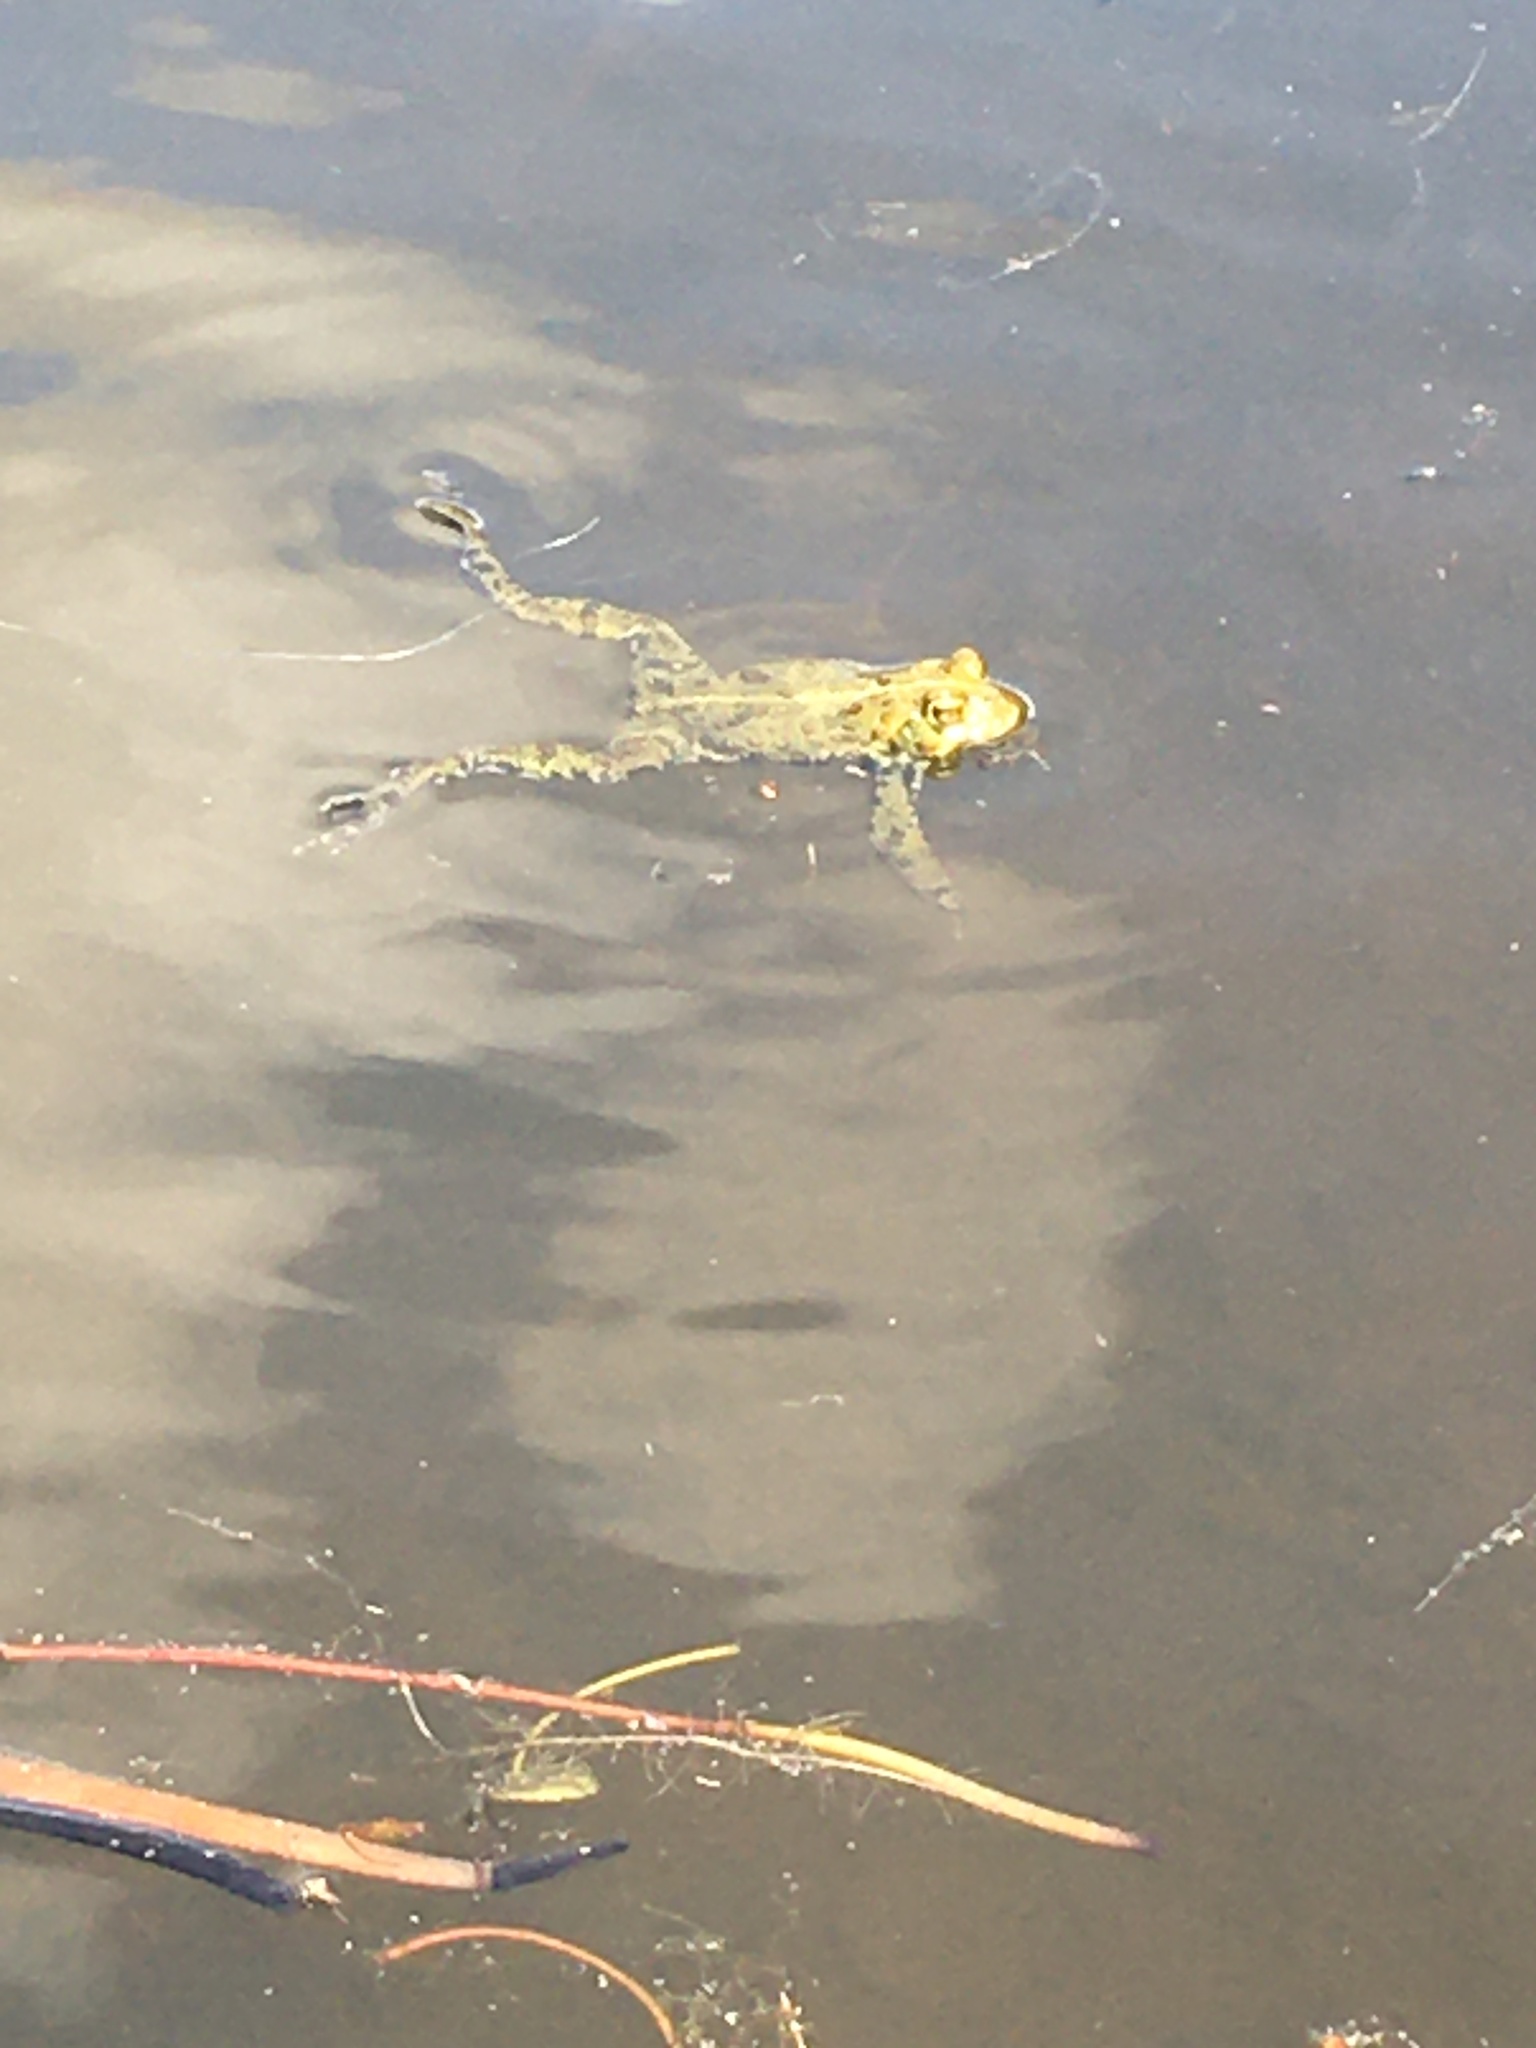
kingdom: Animalia
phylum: Chordata
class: Amphibia
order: Anura
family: Bufonidae
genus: Anaxyrus
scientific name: Anaxyrus boreas
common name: Western toad
